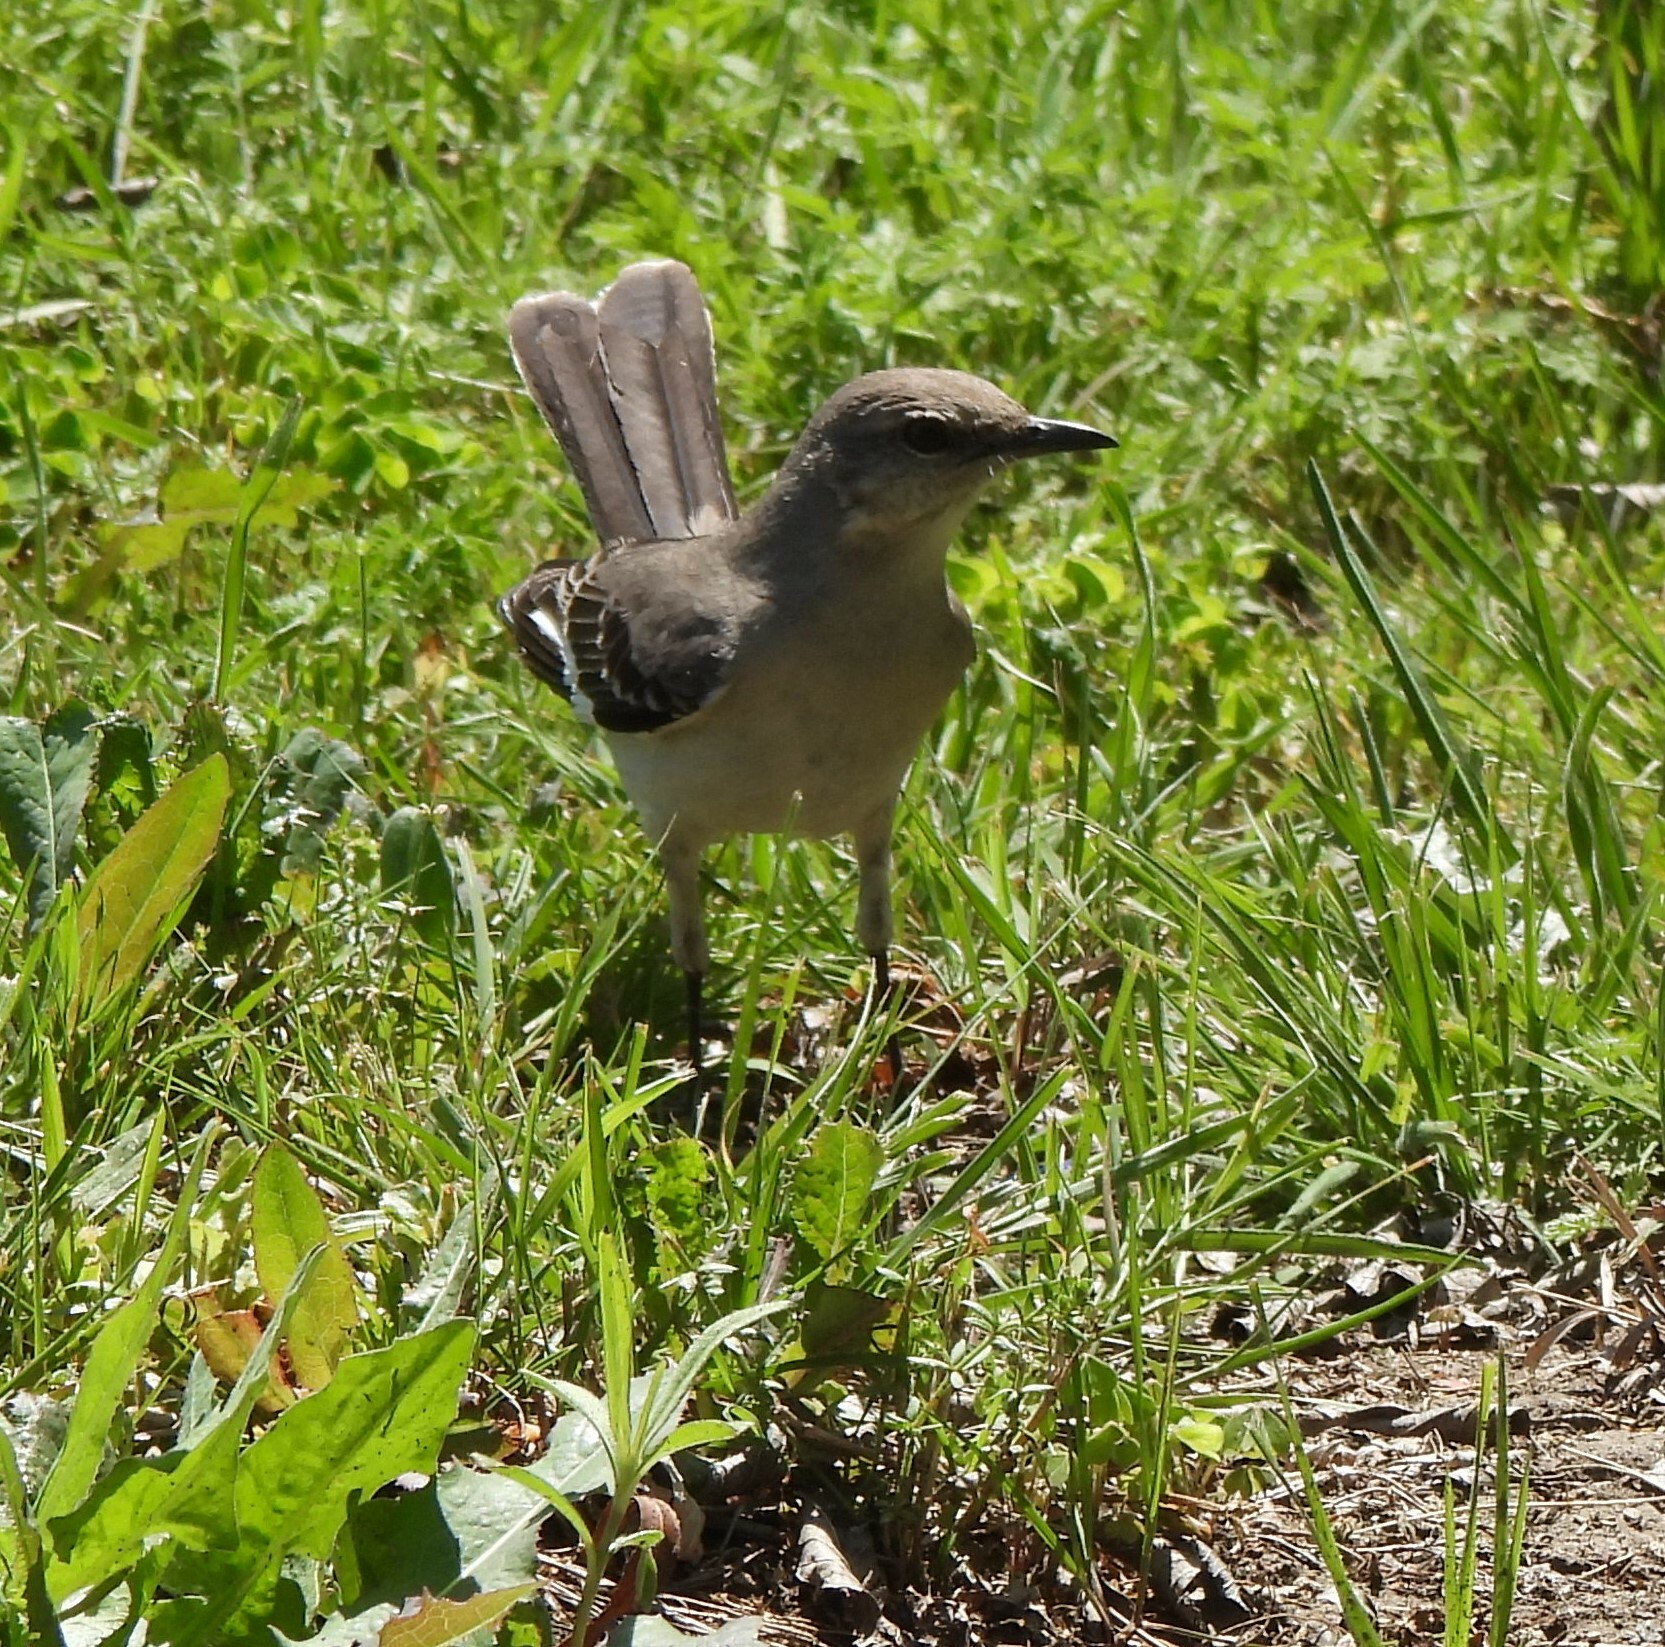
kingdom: Animalia
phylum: Chordata
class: Aves
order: Passeriformes
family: Mimidae
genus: Mimus
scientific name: Mimus polyglottos
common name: Northern mockingbird
